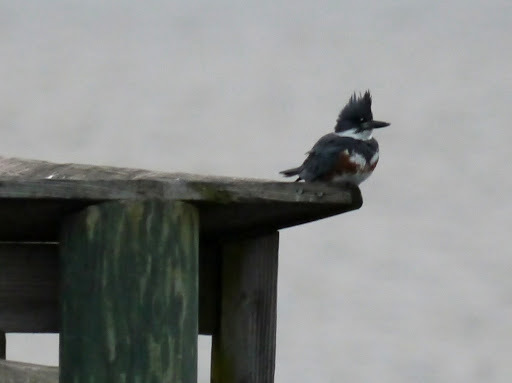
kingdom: Animalia
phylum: Chordata
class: Aves
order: Coraciiformes
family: Alcedinidae
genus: Megaceryle
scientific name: Megaceryle alcyon
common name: Belted kingfisher
